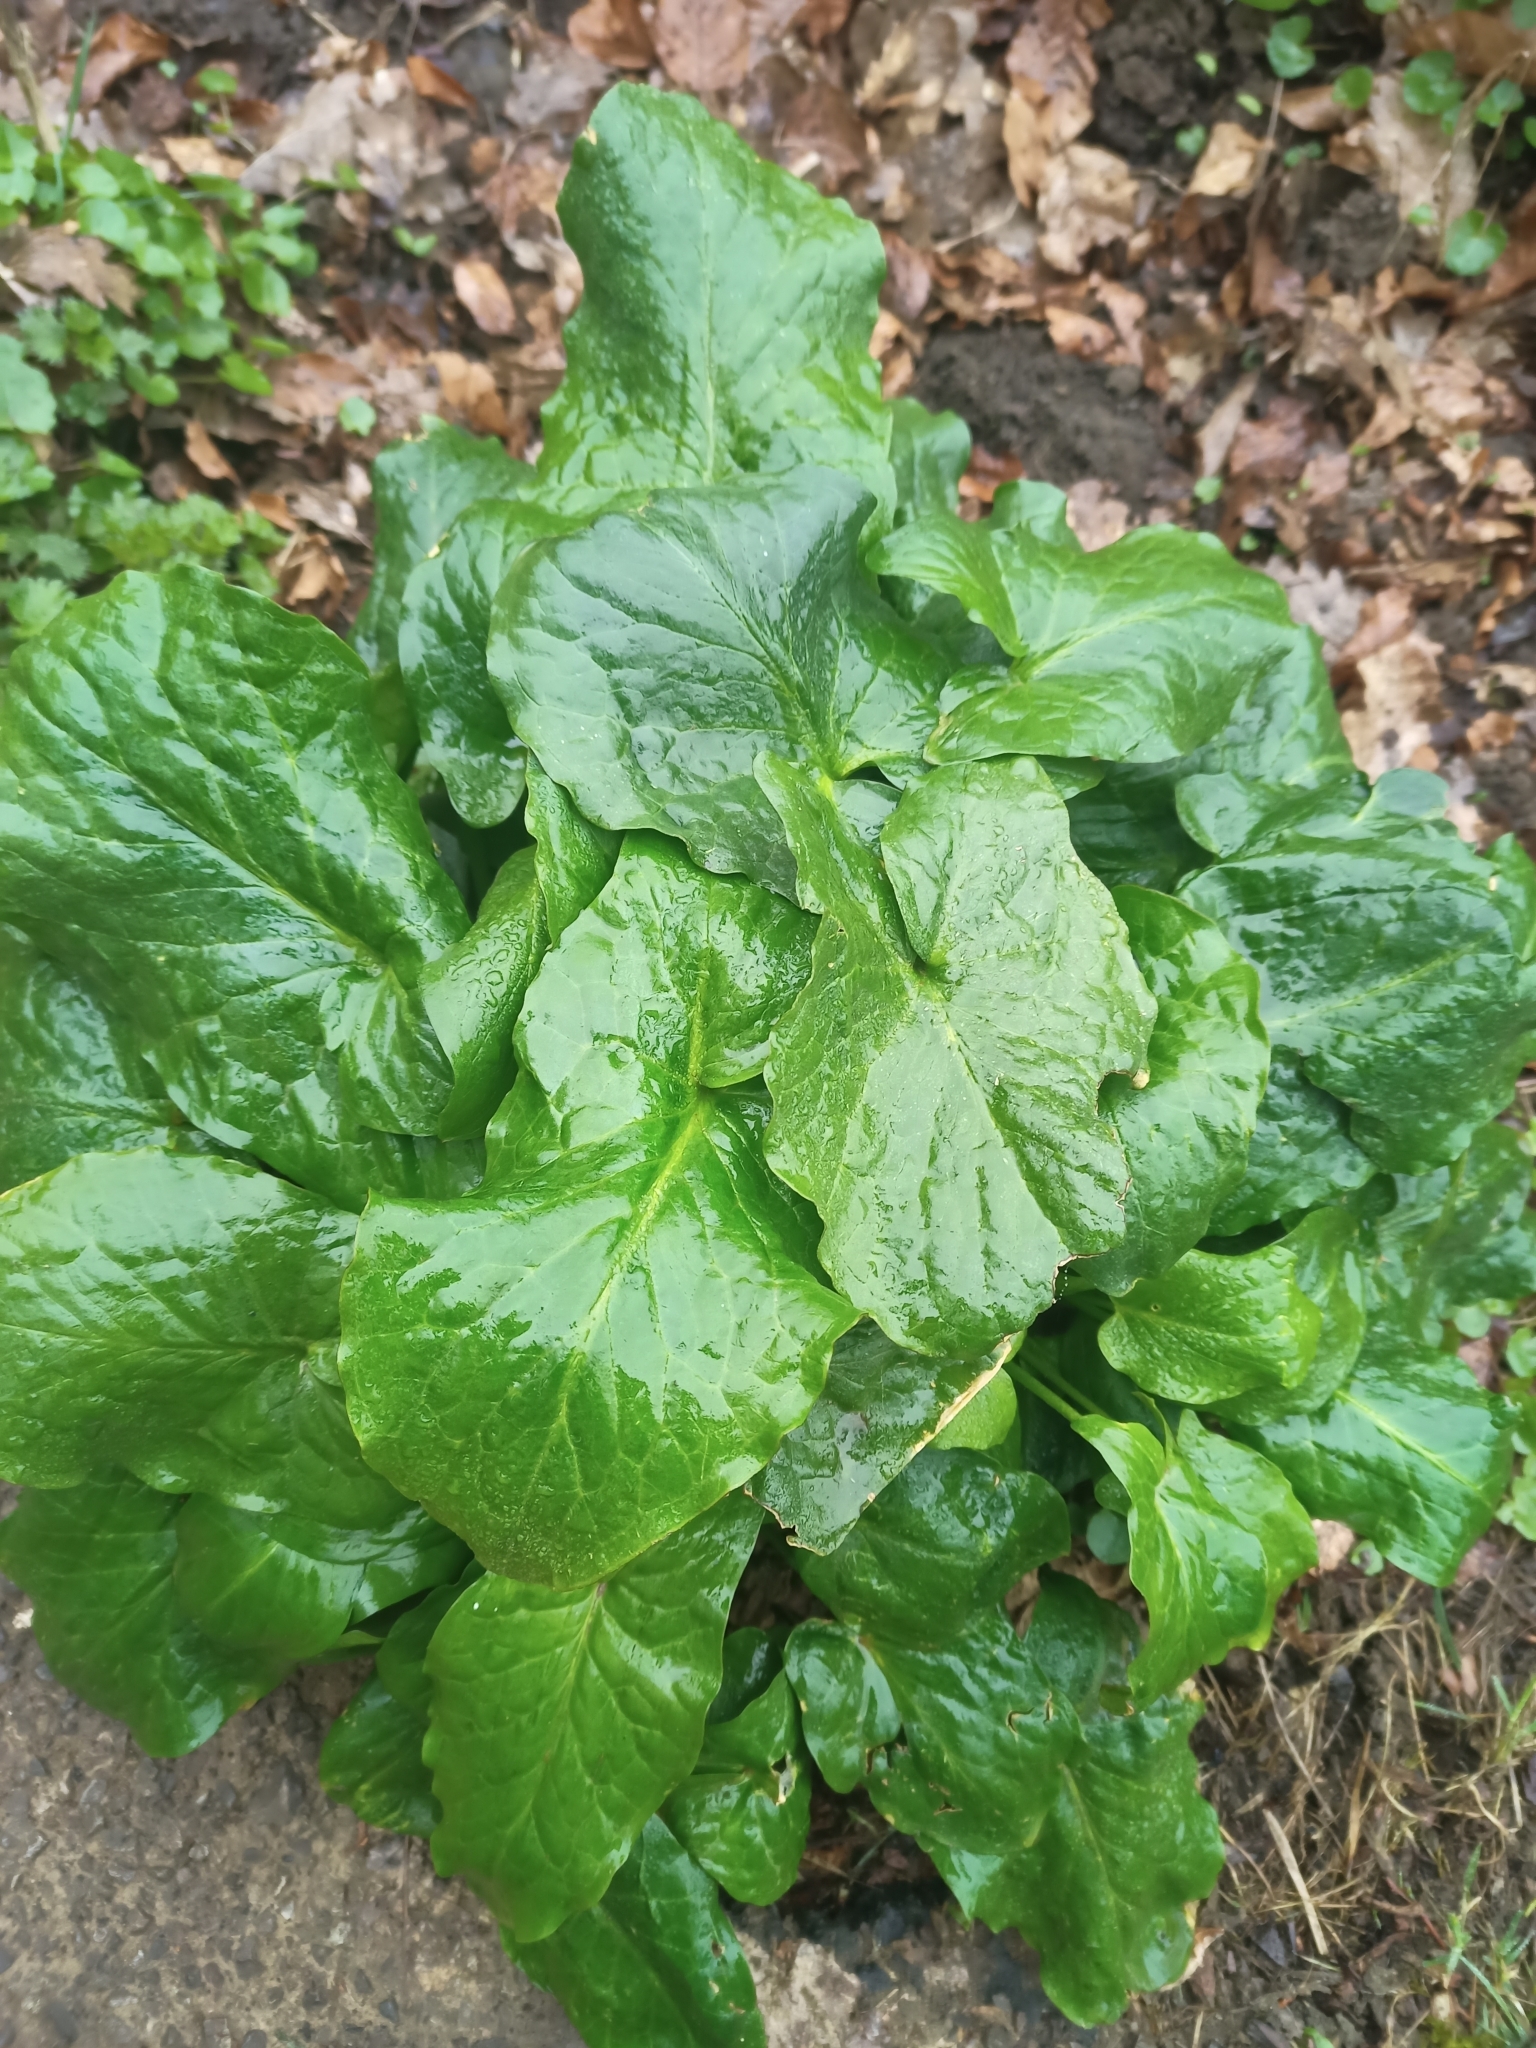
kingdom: Plantae
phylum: Tracheophyta
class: Liliopsida
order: Alismatales
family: Araceae
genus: Arum
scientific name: Arum maculatum
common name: Lords-and-ladies
